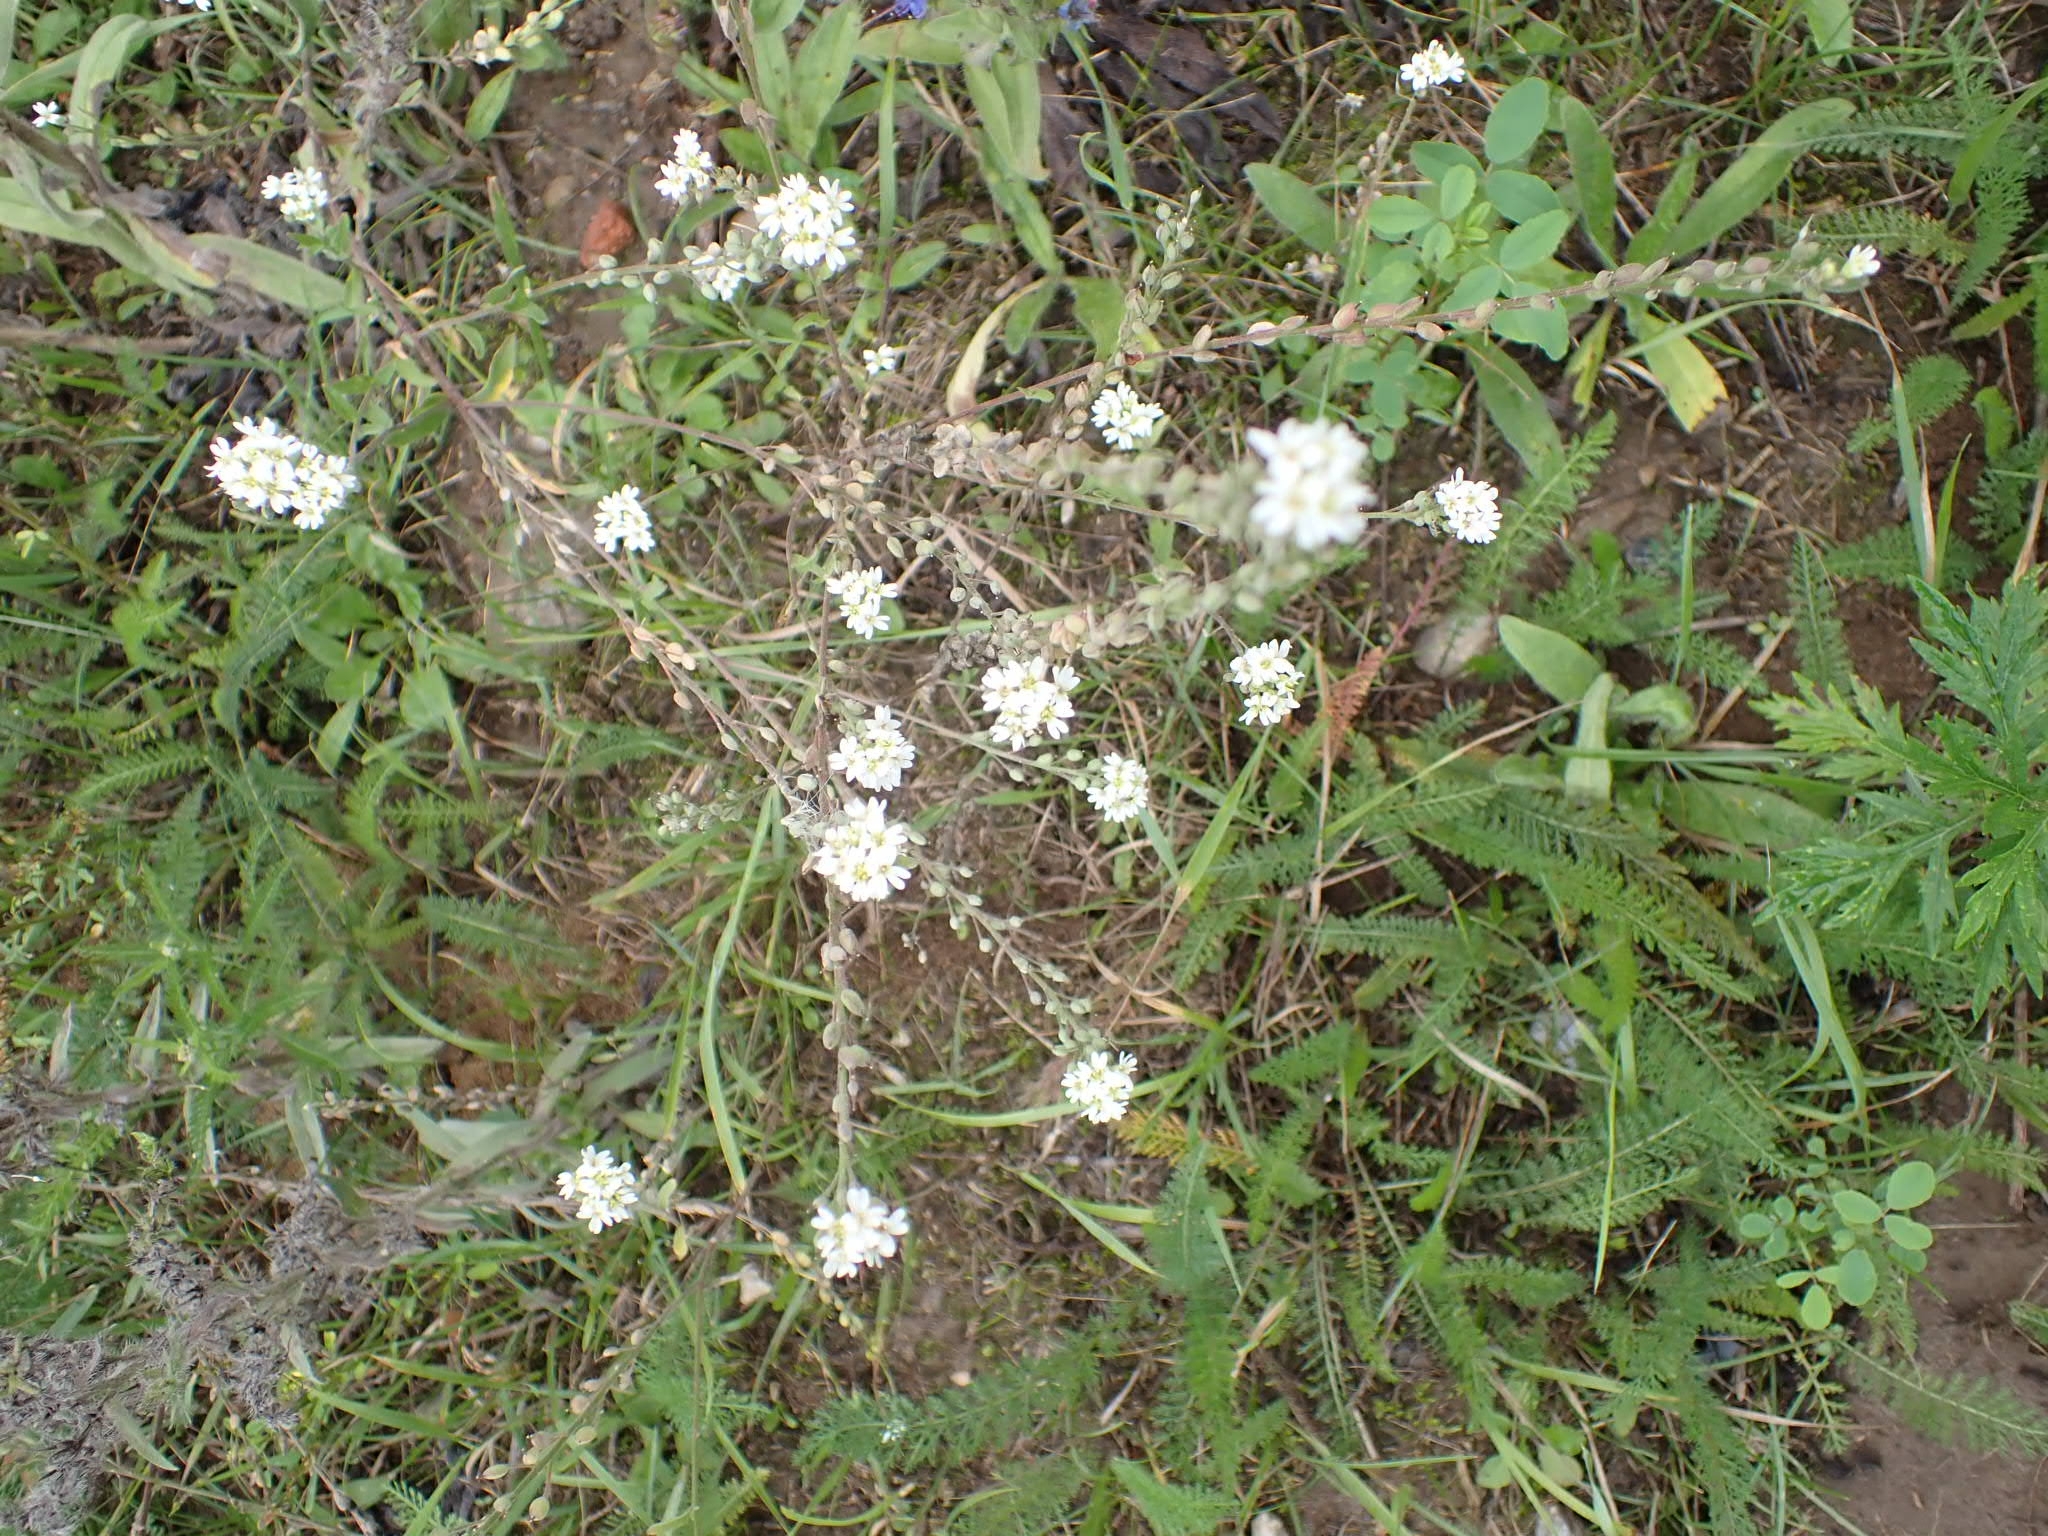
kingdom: Plantae
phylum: Tracheophyta
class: Magnoliopsida
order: Brassicales
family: Brassicaceae
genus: Berteroa
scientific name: Berteroa incana
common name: Hoary alison
